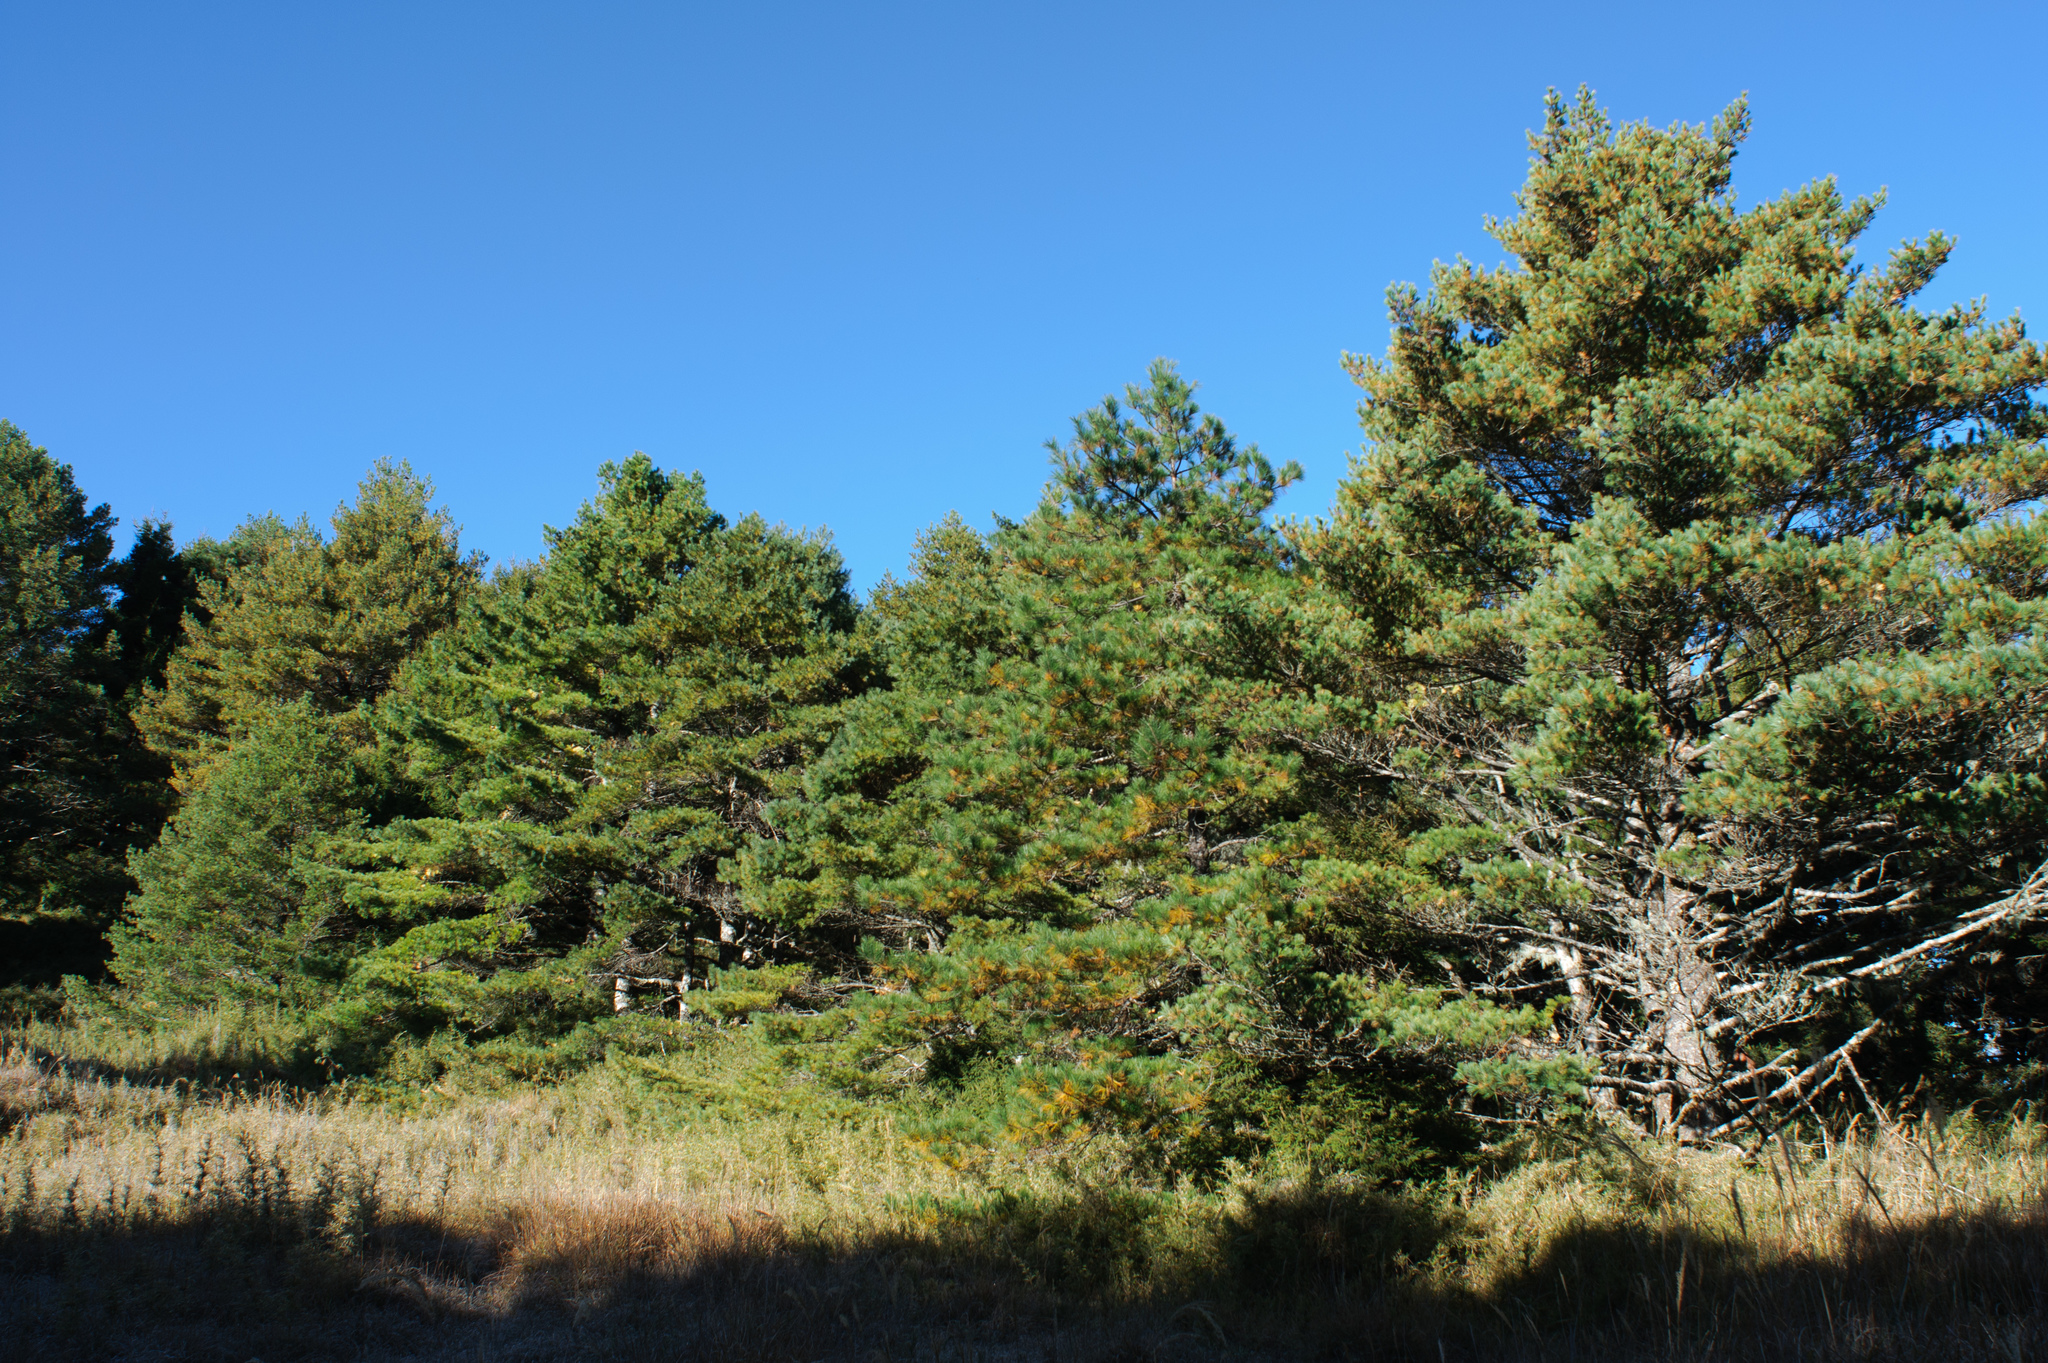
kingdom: Plantae
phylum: Tracheophyta
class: Pinopsida
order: Pinales
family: Pinaceae
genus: Pinus
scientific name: Pinus armandii
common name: Armand's pine
